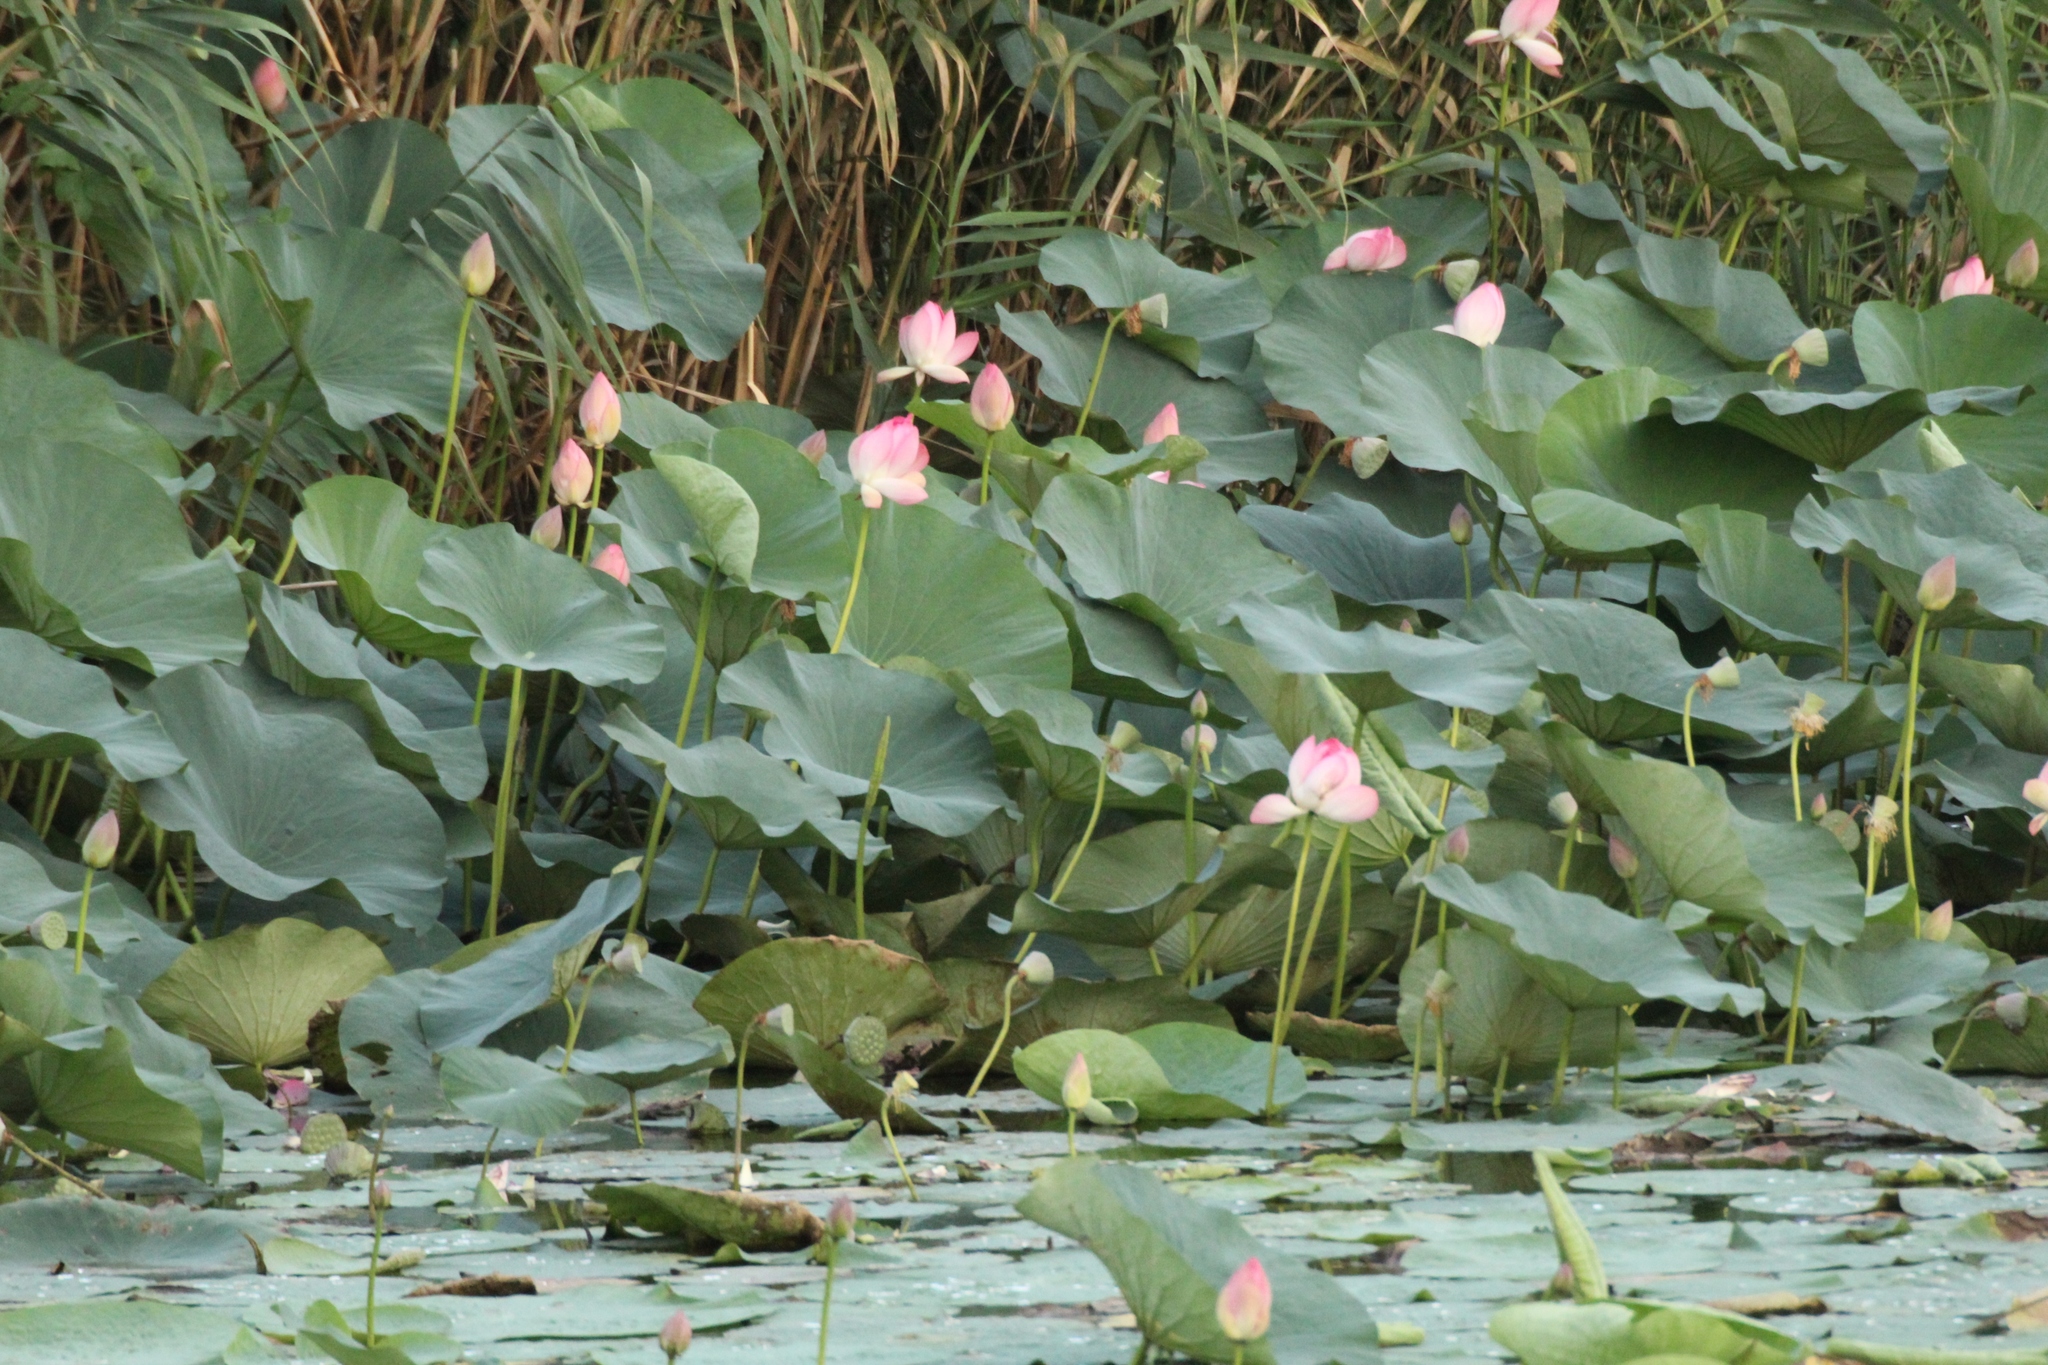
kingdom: Plantae
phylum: Tracheophyta
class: Magnoliopsida
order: Proteales
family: Nelumbonaceae
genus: Nelumbo
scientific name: Nelumbo nucifera
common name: Sacred lotus
